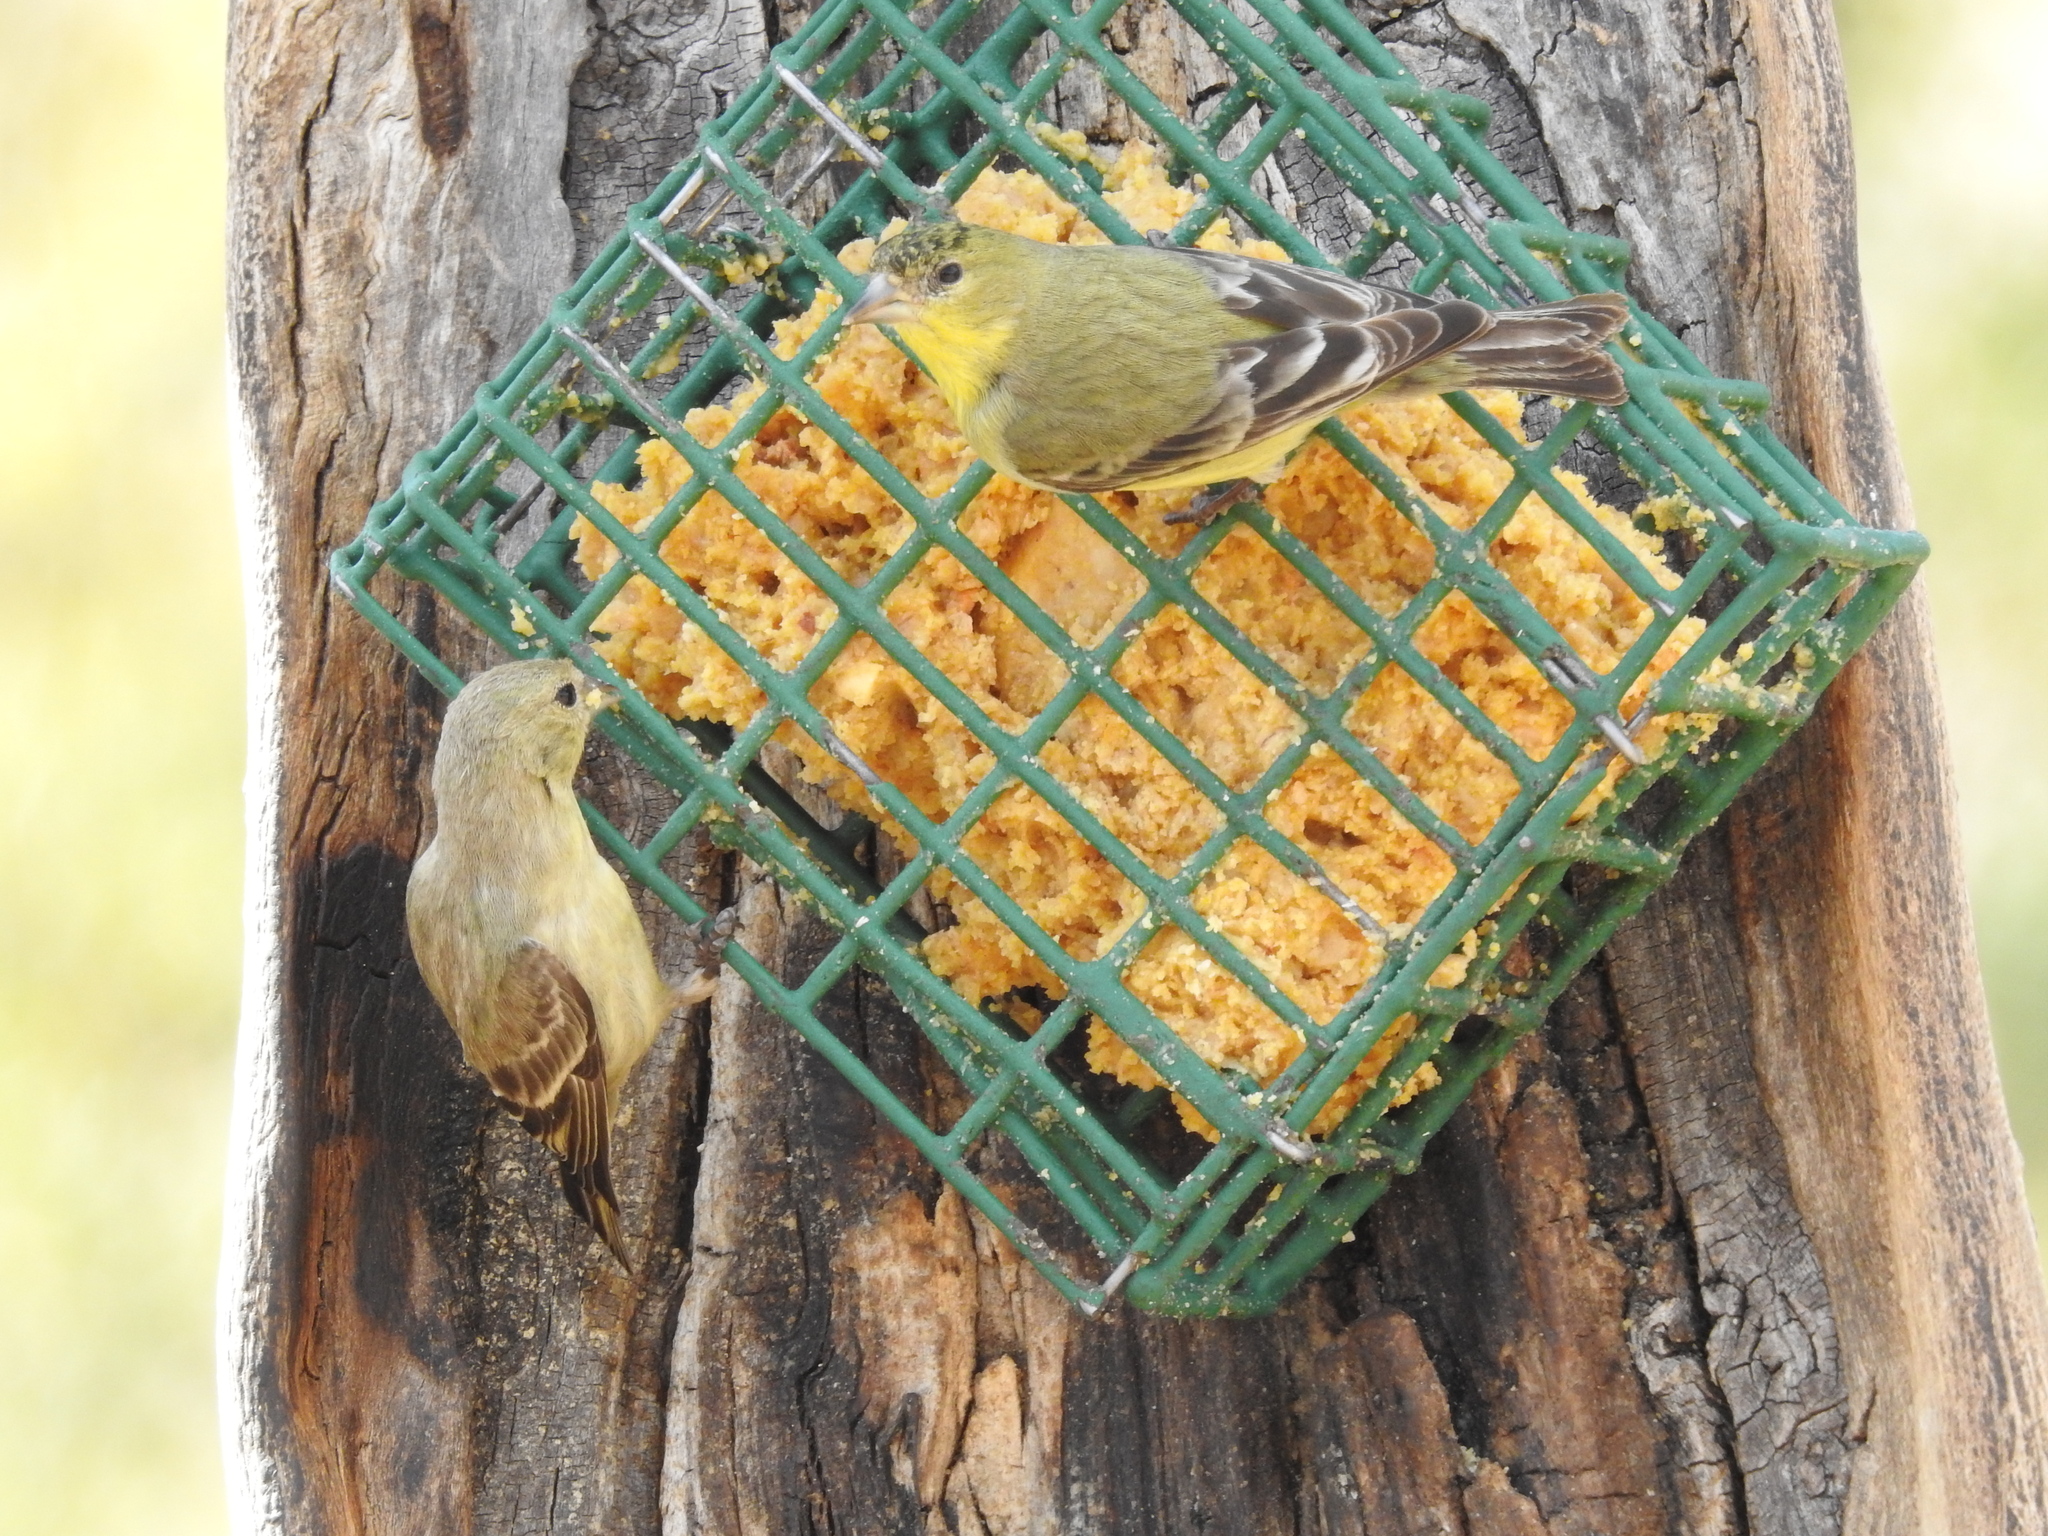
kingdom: Animalia
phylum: Chordata
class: Aves
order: Passeriformes
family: Fringillidae
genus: Spinus
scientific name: Spinus psaltria
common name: Lesser goldfinch
